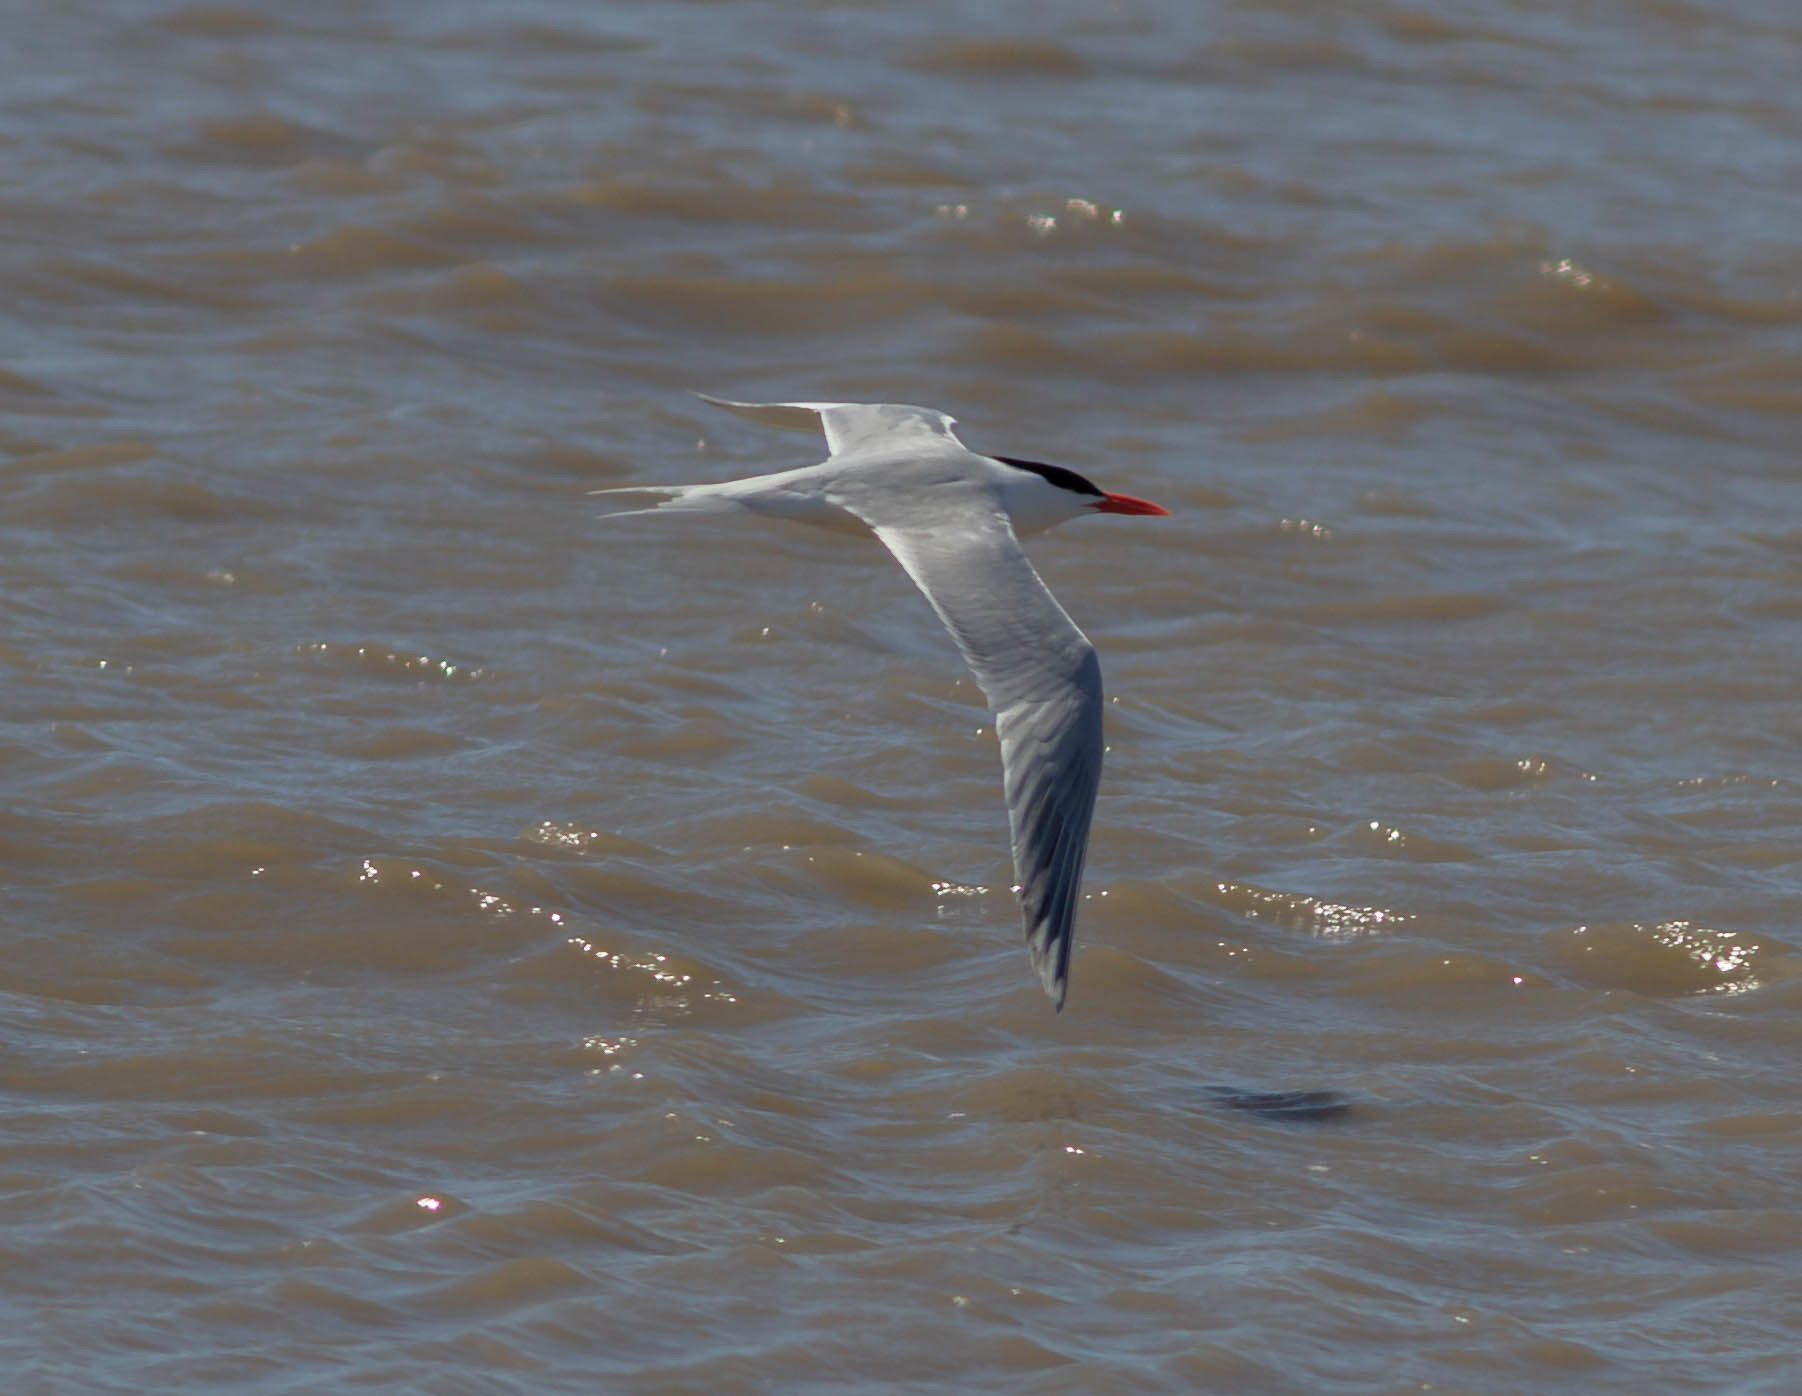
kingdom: Animalia
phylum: Chordata
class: Aves
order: Charadriiformes
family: Laridae
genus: Thalasseus
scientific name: Thalasseus maximus
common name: Royal tern
